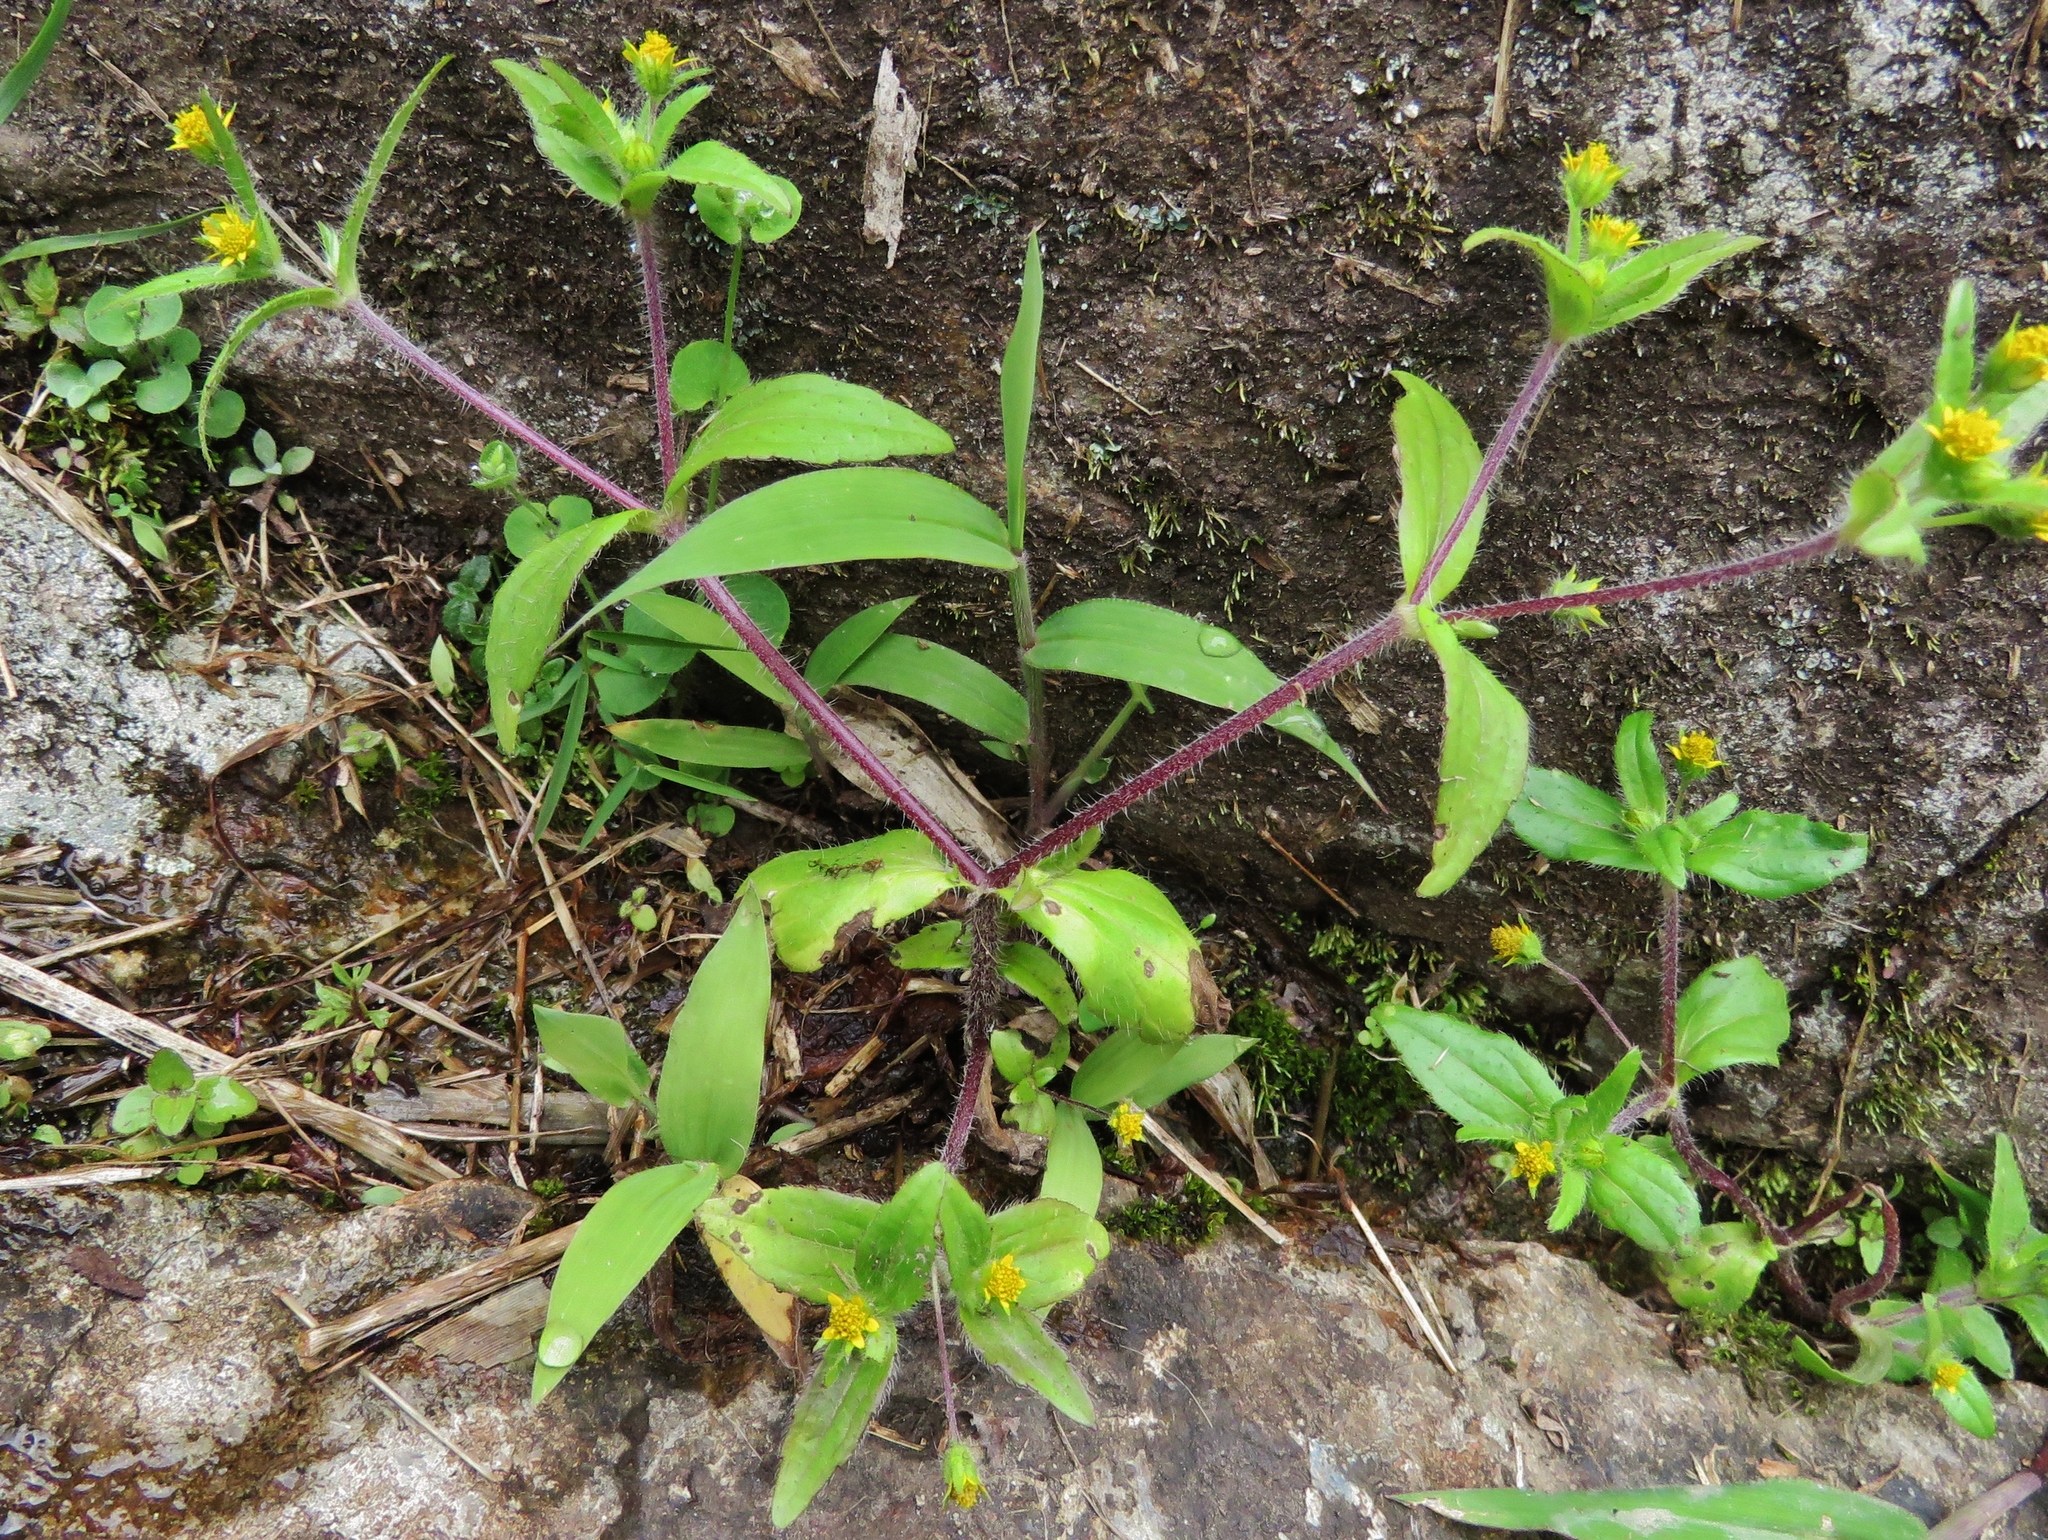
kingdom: Plantae
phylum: Tracheophyta
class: Magnoliopsida
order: Asterales
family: Asteraceae
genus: Jaegeria
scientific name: Jaegeria hirta
